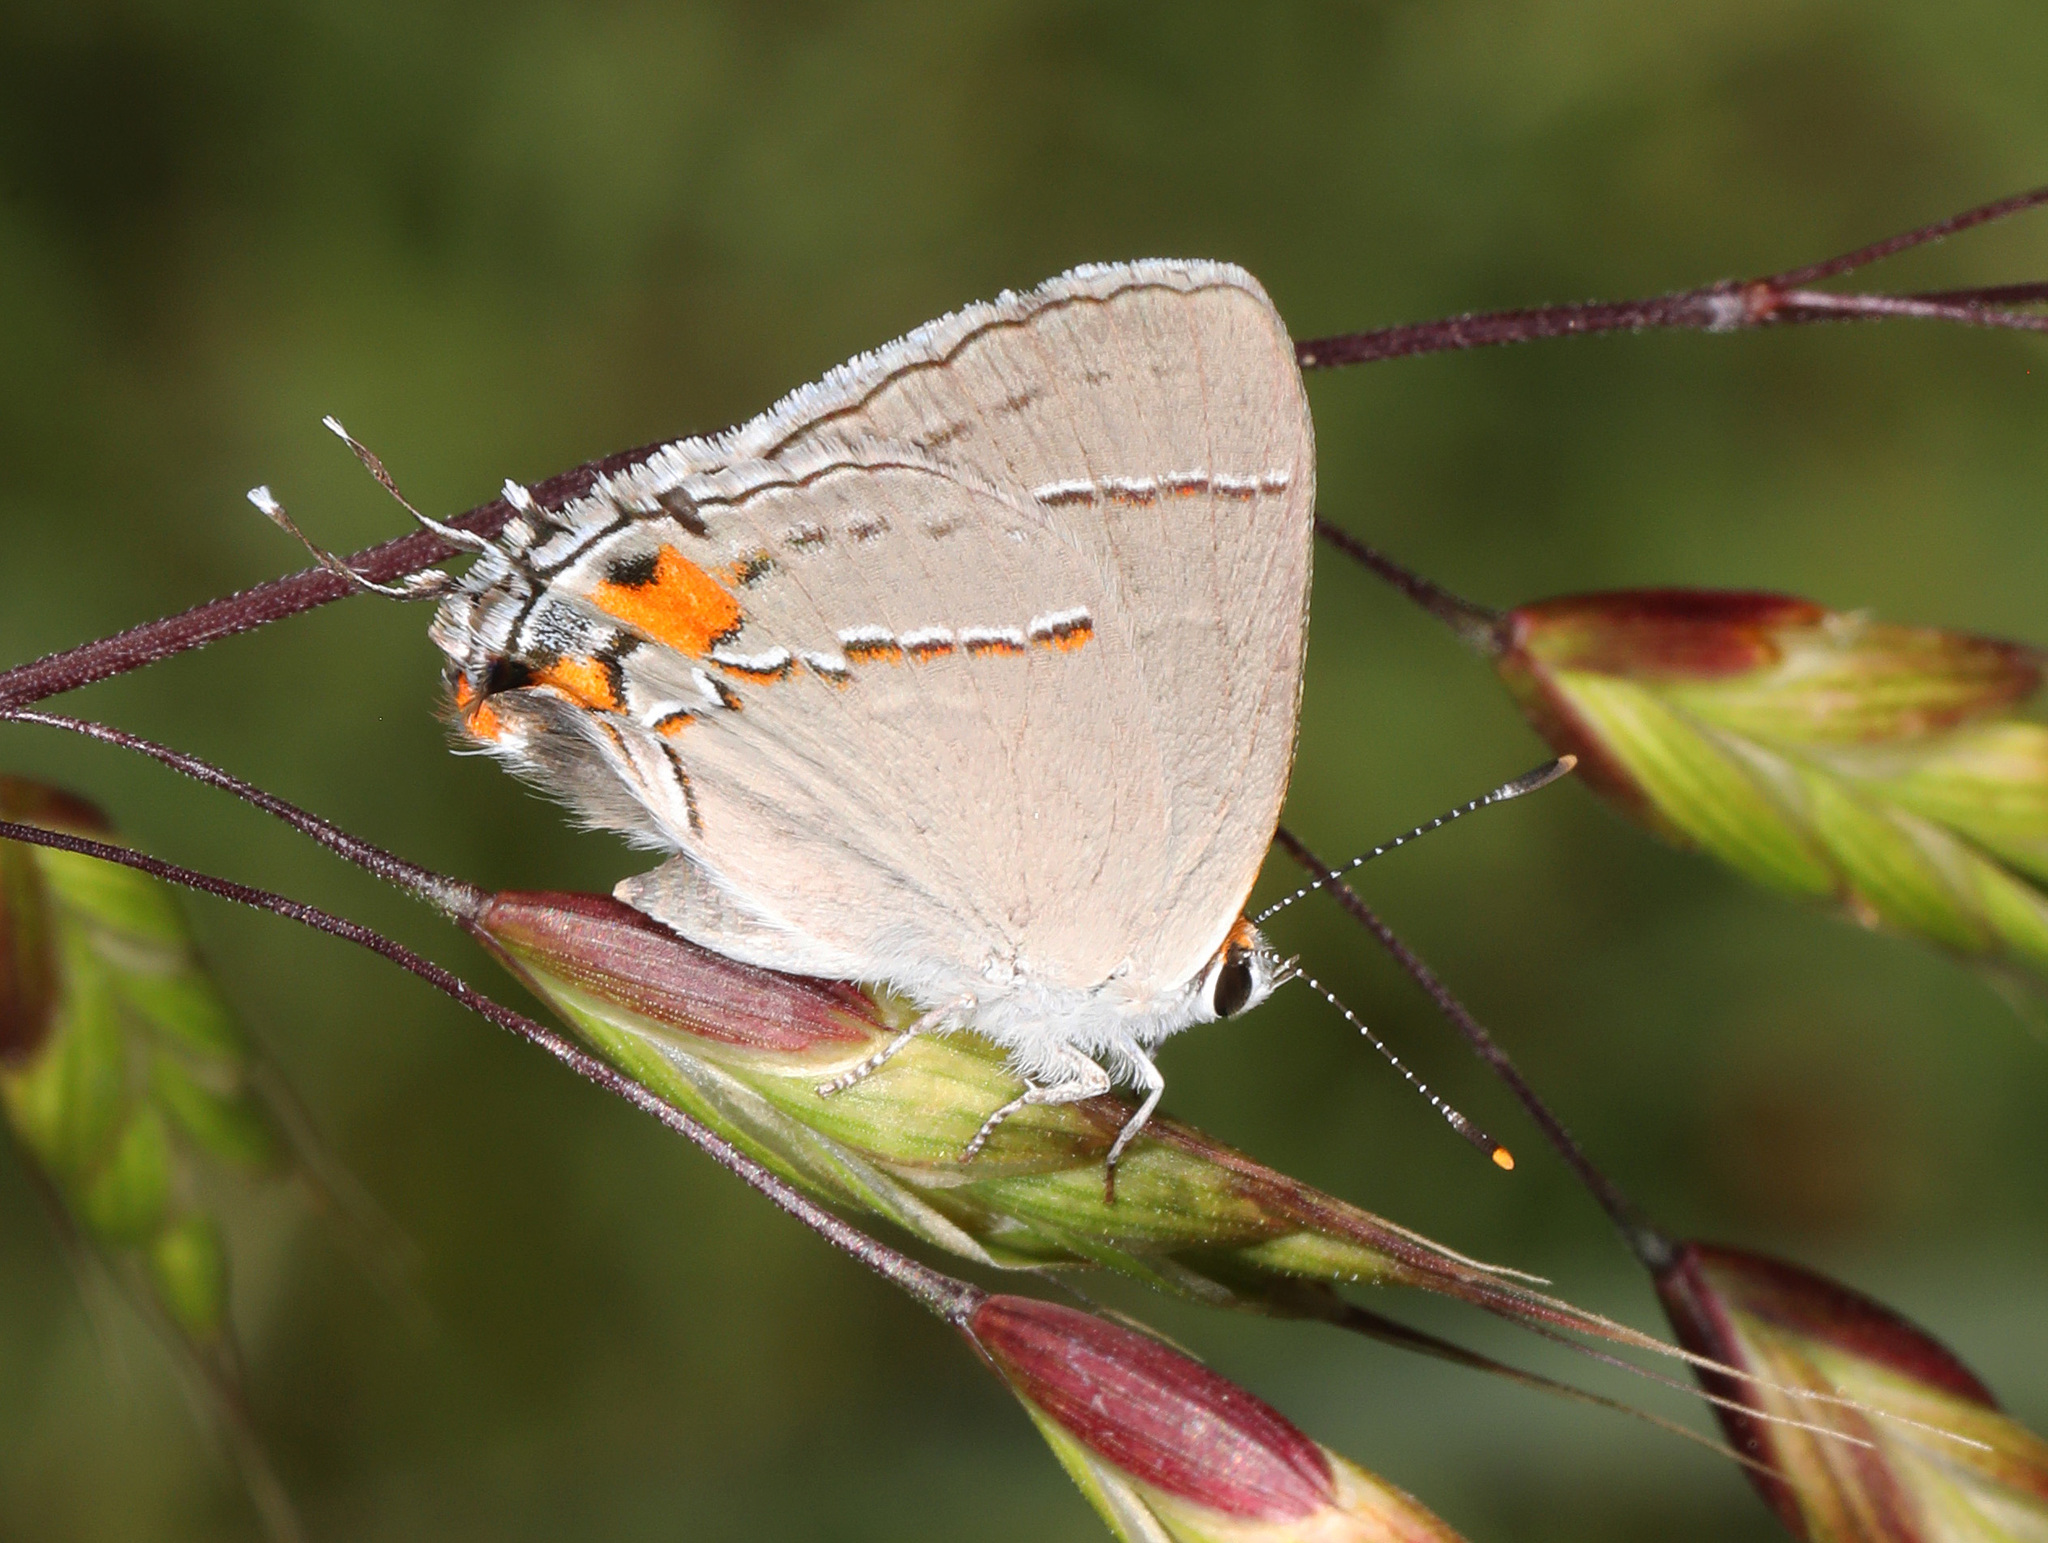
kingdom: Animalia
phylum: Arthropoda
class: Insecta
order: Lepidoptera
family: Lycaenidae
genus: Strymon
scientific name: Strymon melinus
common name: Gray hairstreak
